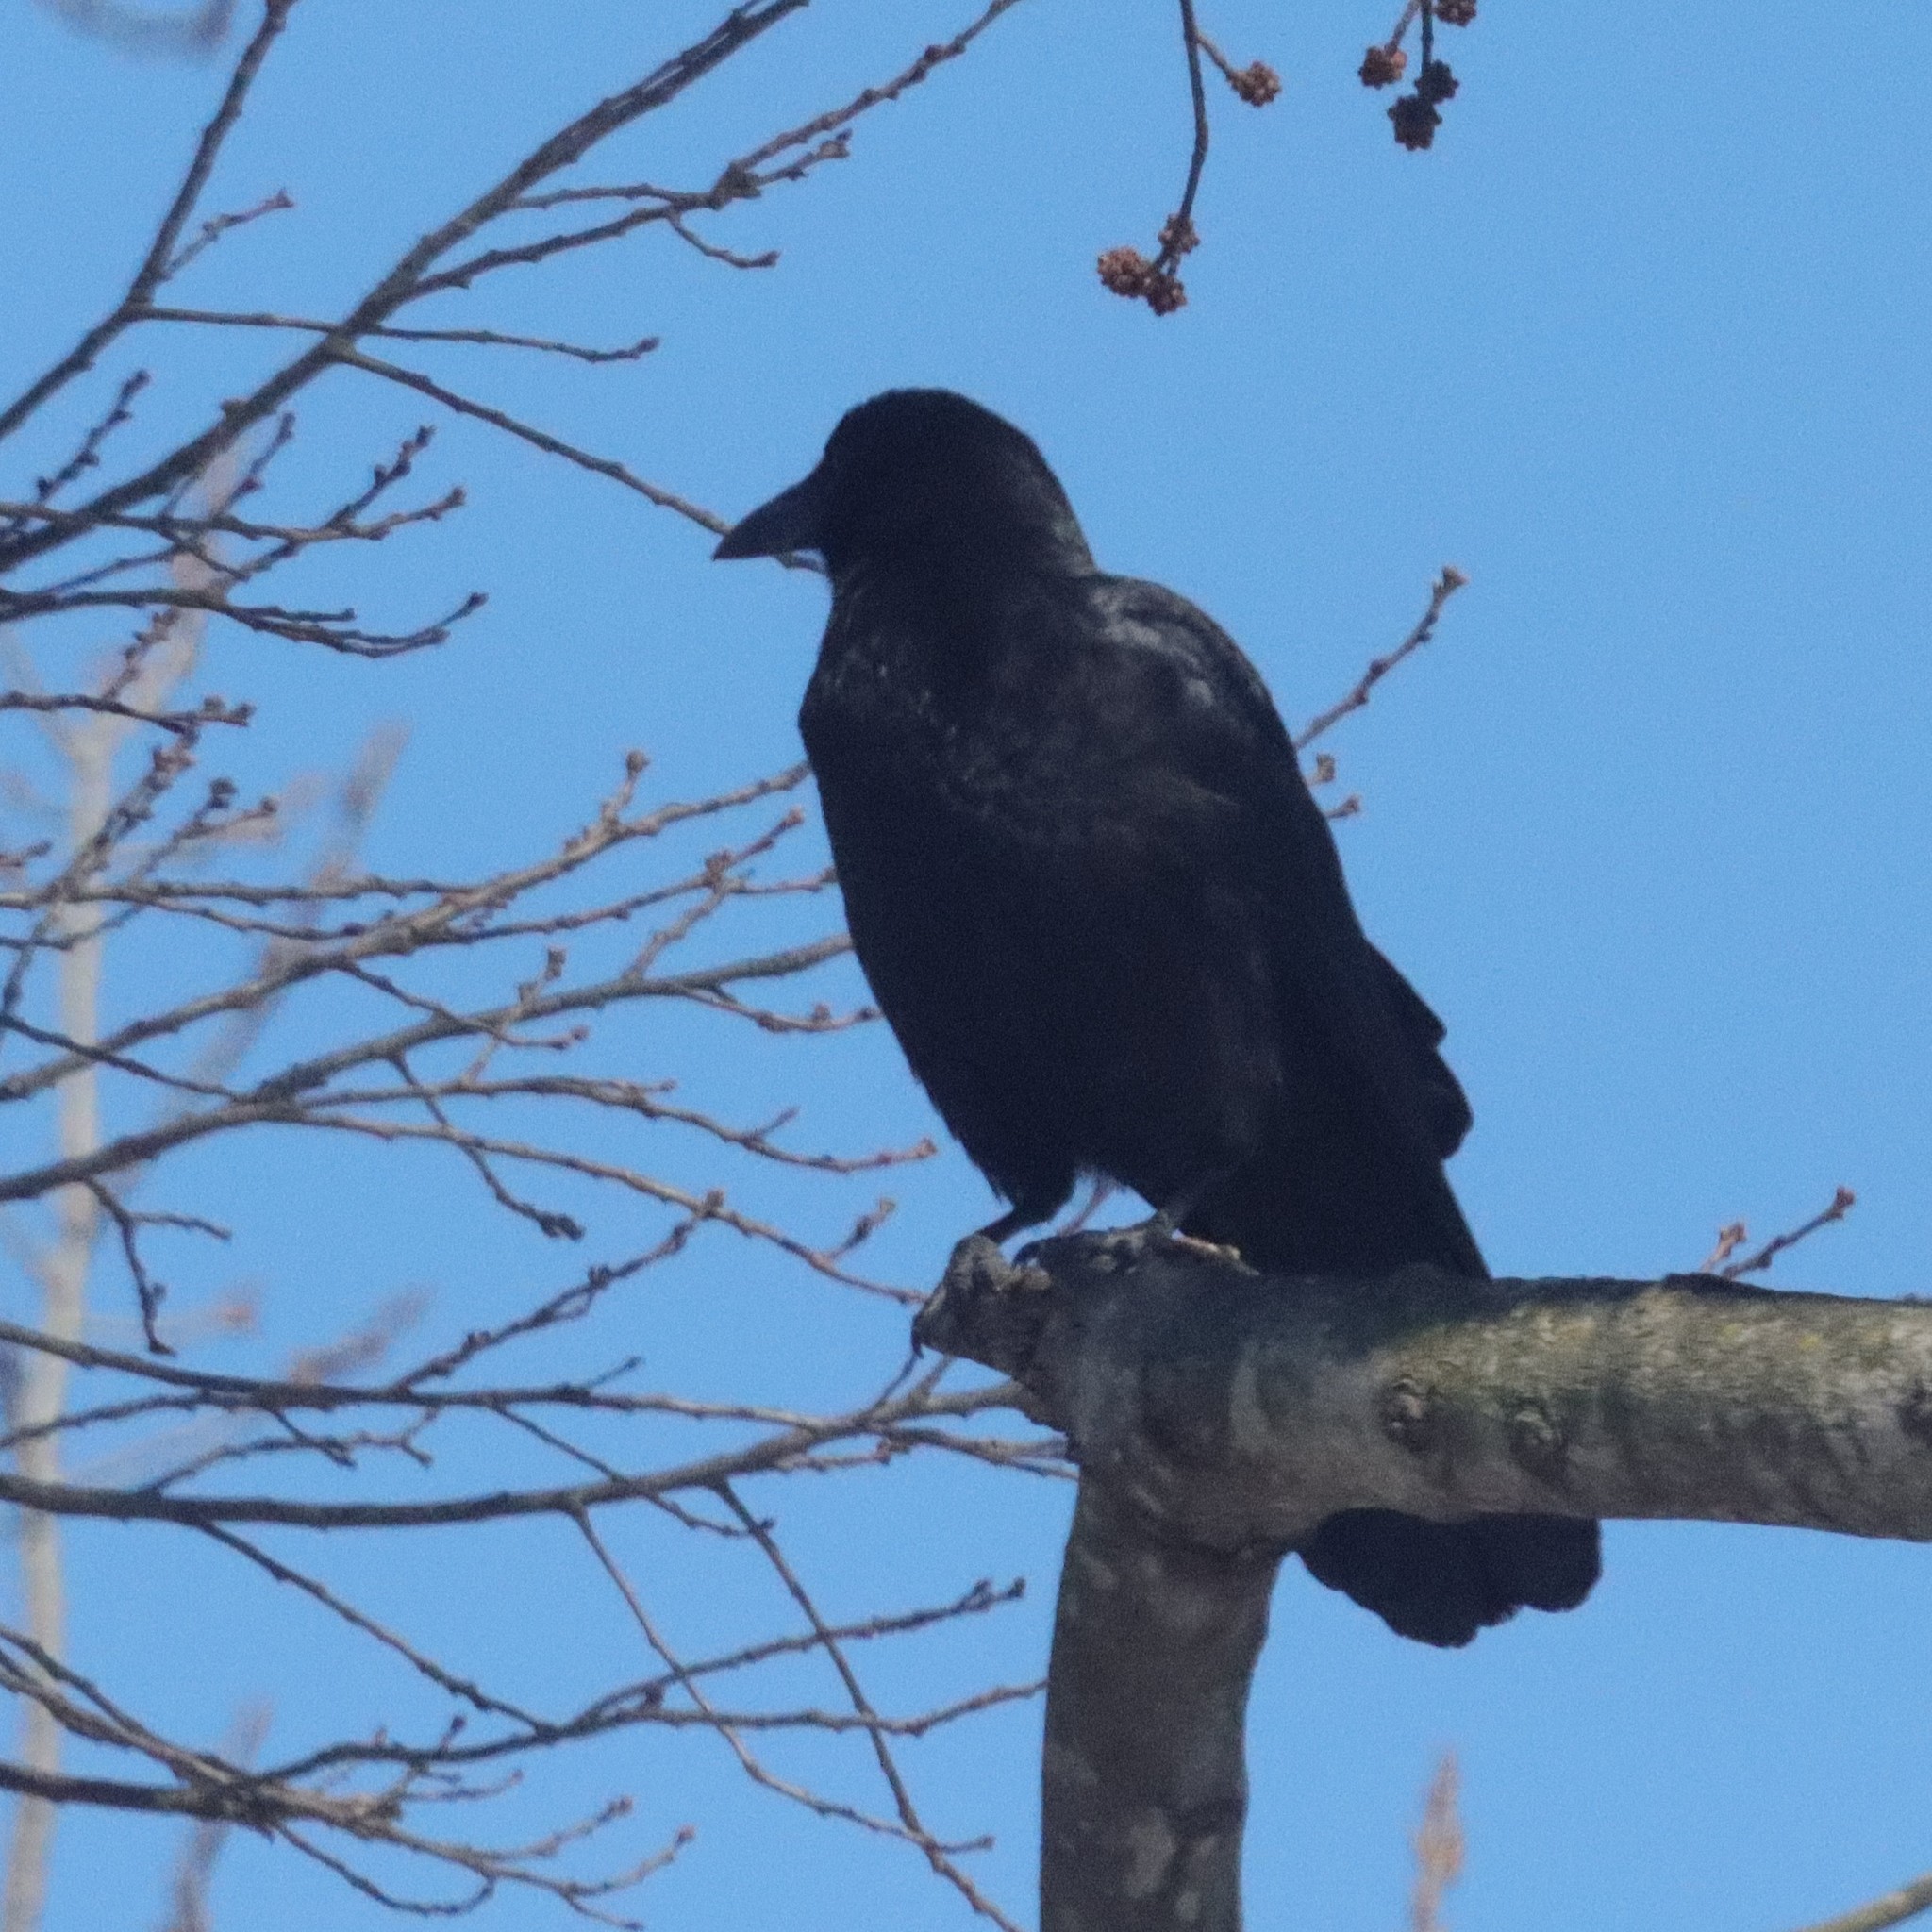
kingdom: Animalia
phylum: Chordata
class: Aves
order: Passeriformes
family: Corvidae
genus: Corvus
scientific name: Corvus brachyrhynchos
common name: American crow
